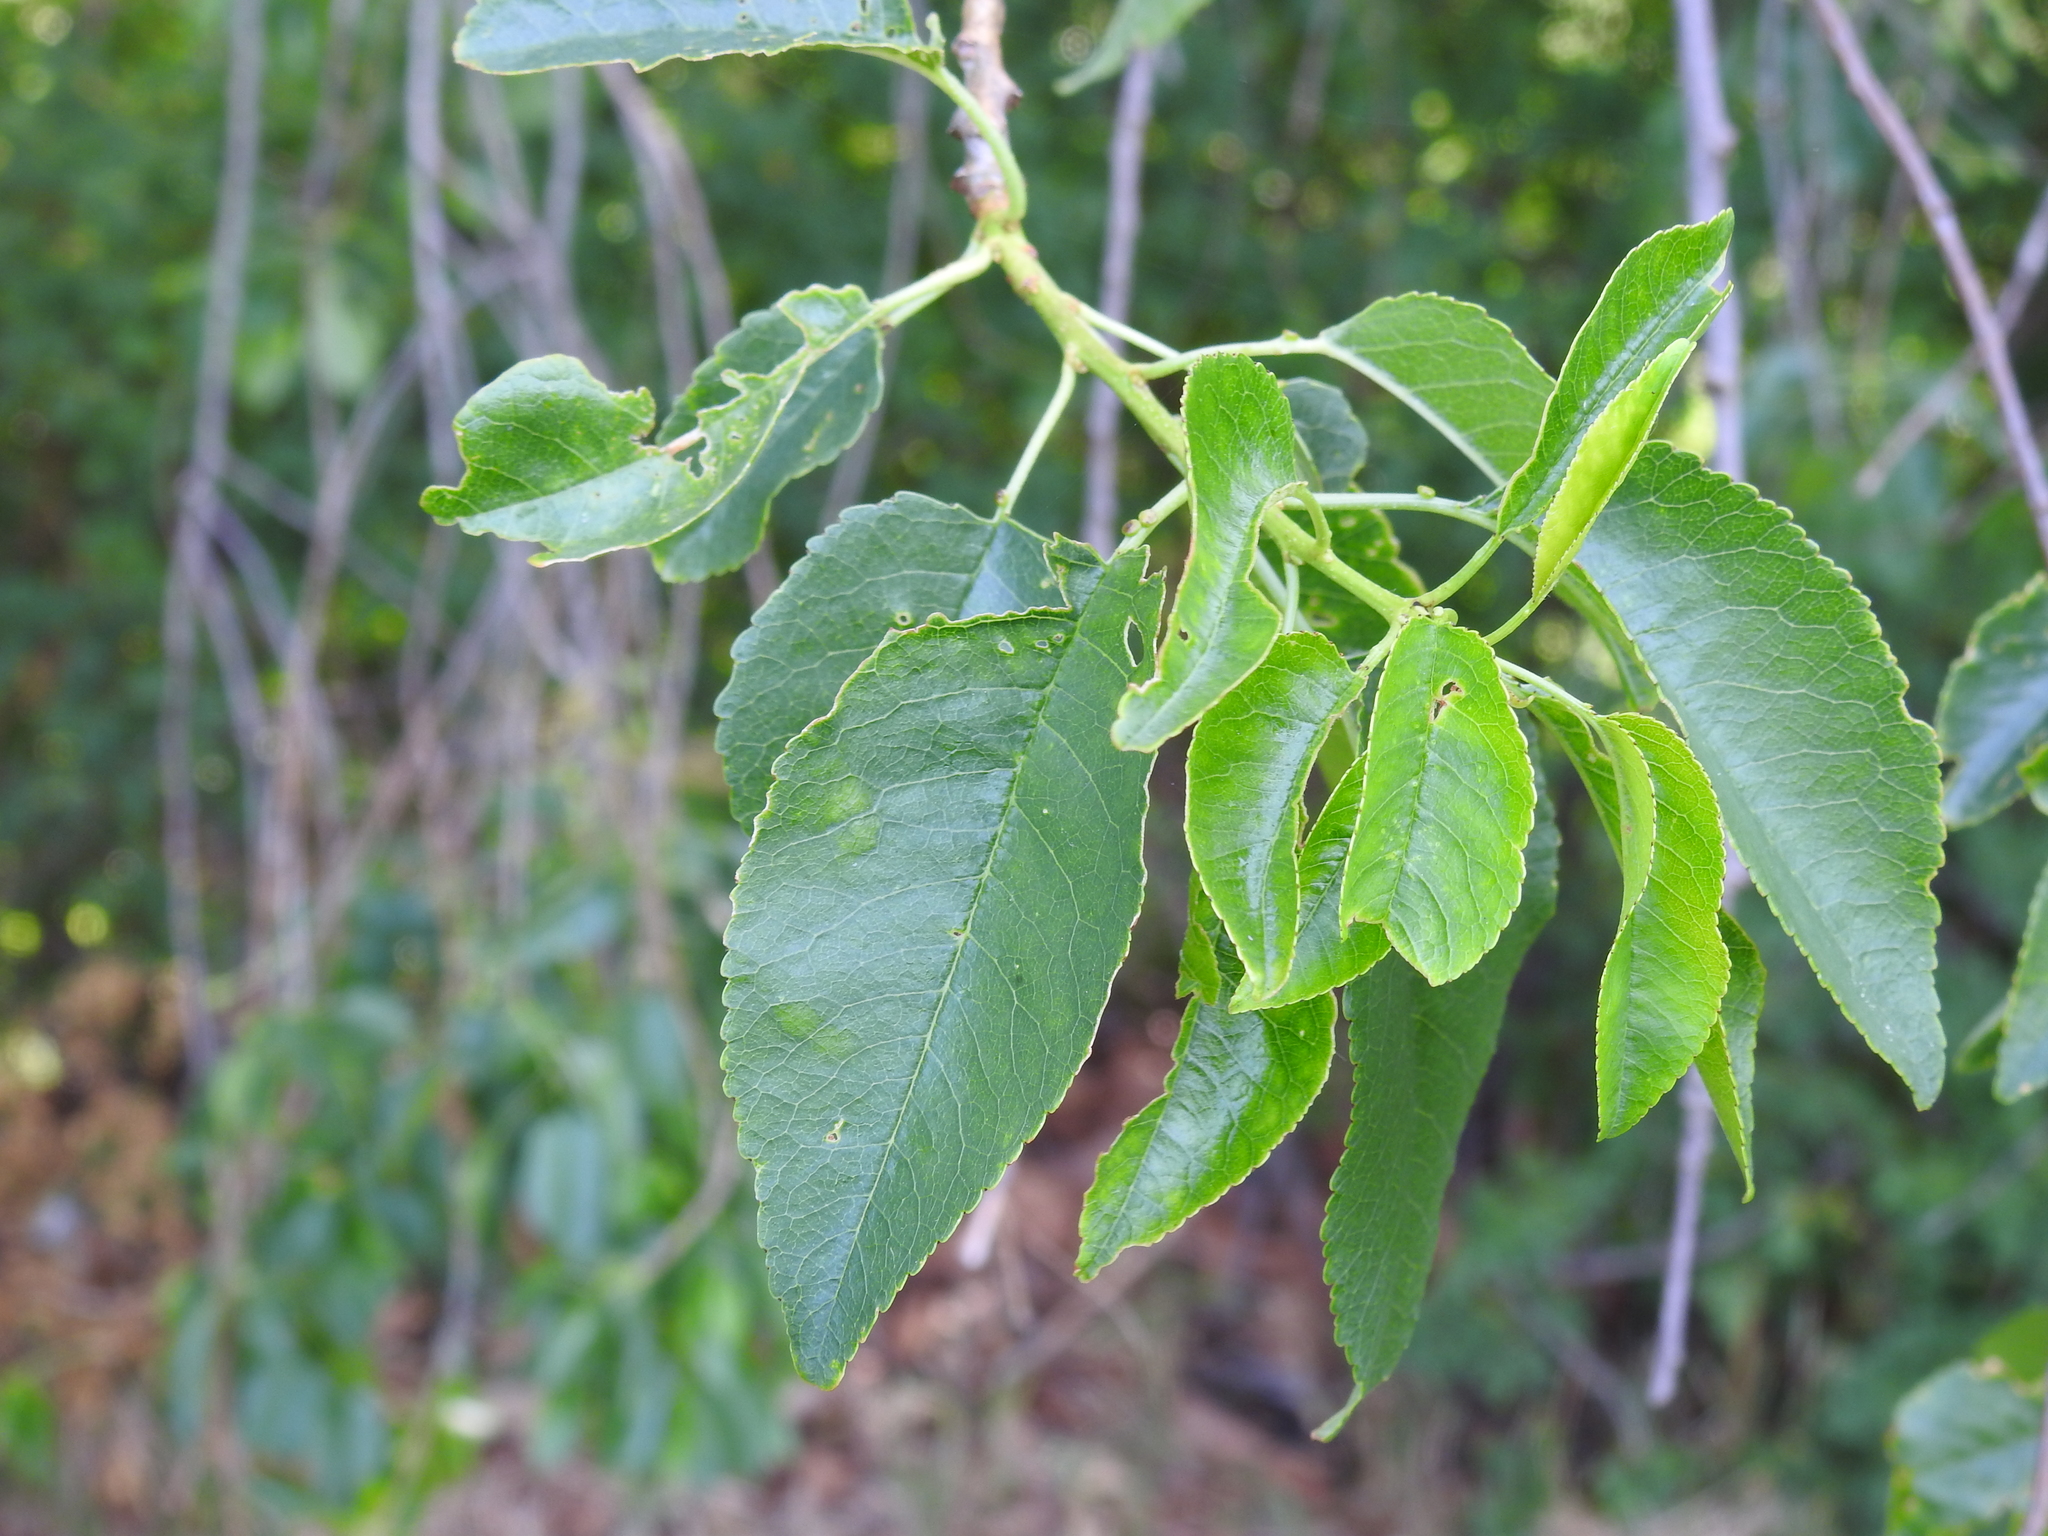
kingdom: Plantae
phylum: Tracheophyta
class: Magnoliopsida
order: Rosales
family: Rosaceae
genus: Prunus
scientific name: Prunus mahaleb
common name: Mahaleb cherry
